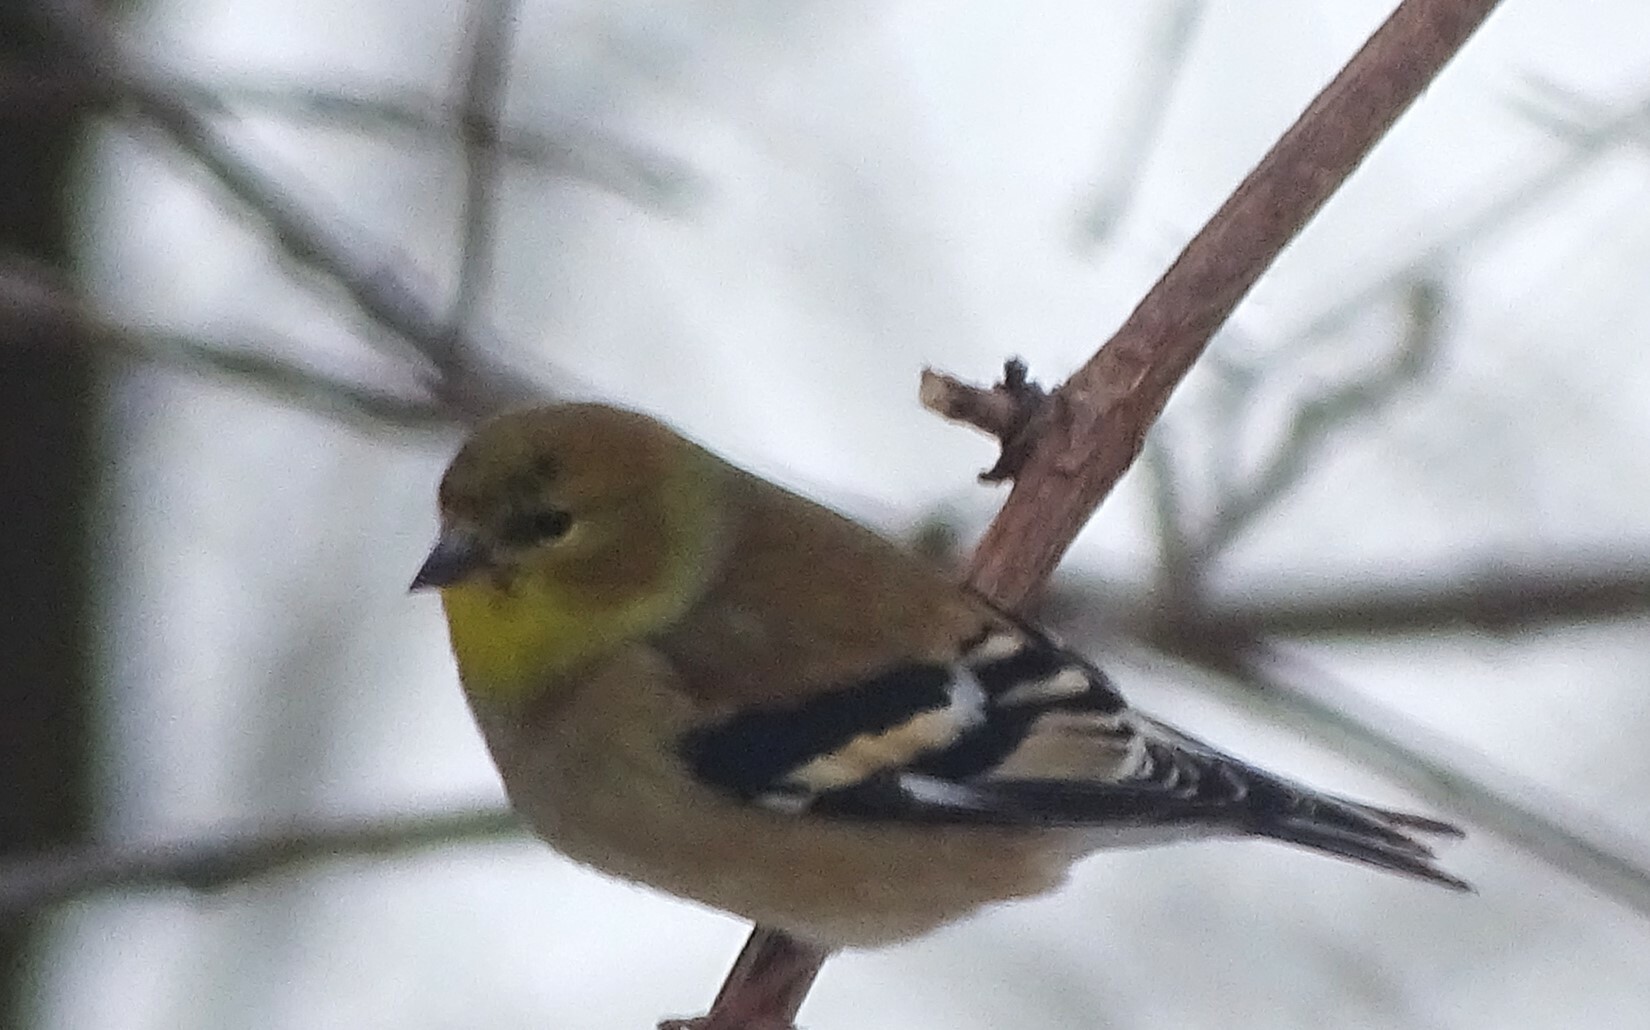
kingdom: Animalia
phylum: Chordata
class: Aves
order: Passeriformes
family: Fringillidae
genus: Spinus
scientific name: Spinus tristis
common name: American goldfinch
